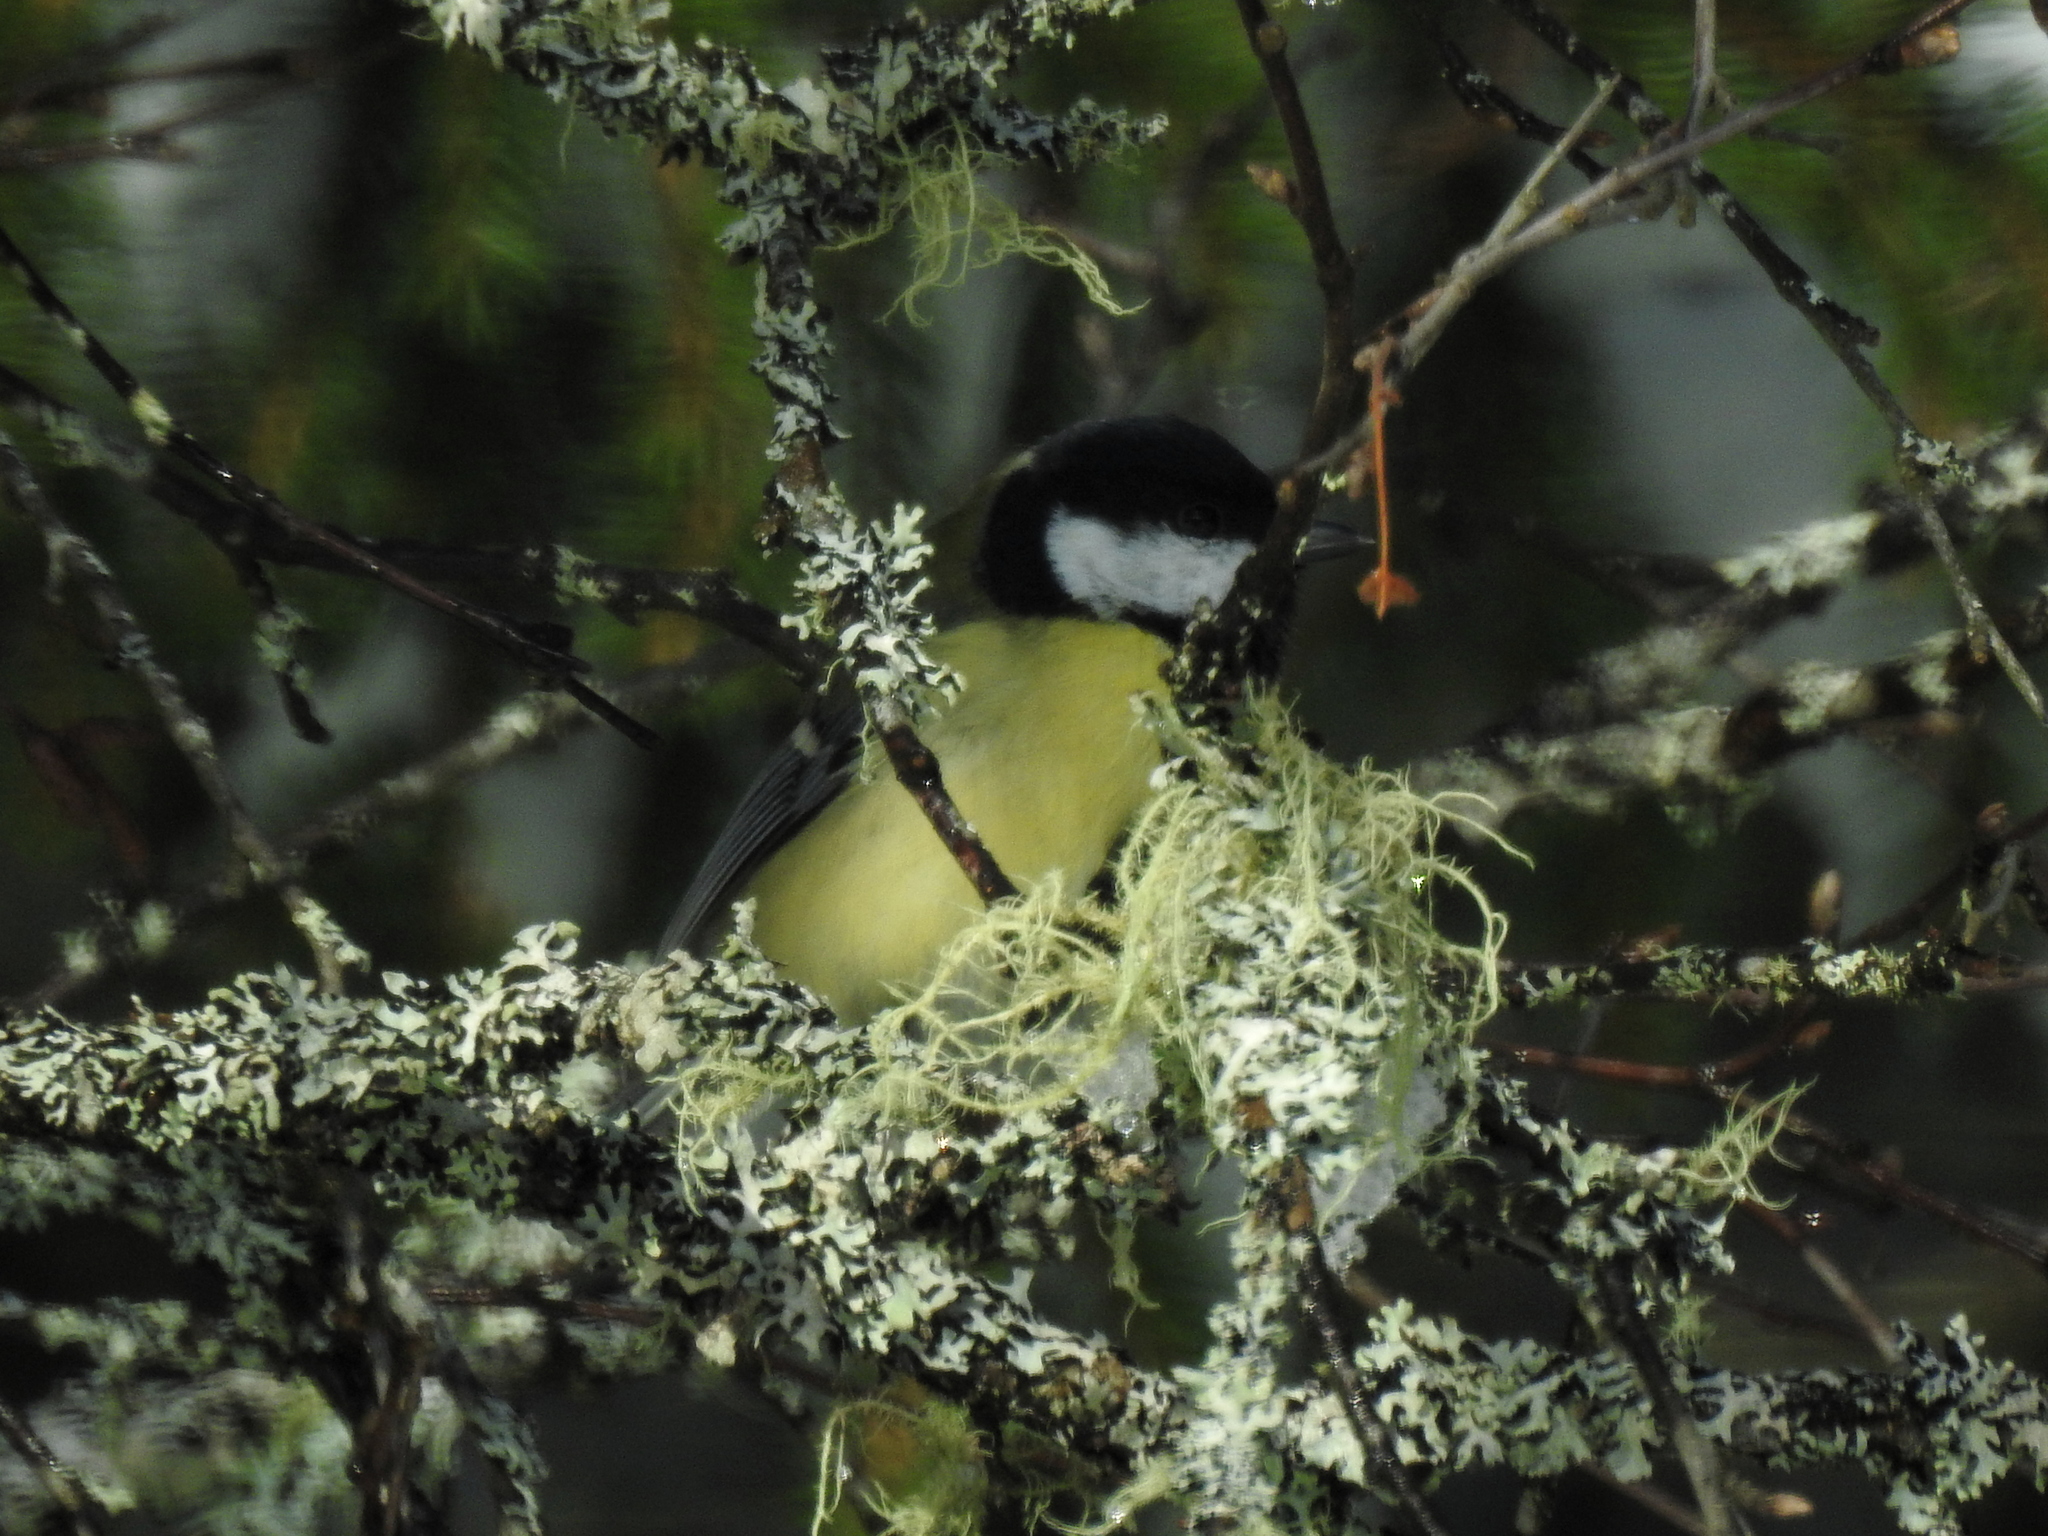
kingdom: Animalia
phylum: Chordata
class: Aves
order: Passeriformes
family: Paridae
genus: Parus
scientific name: Parus major
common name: Great tit
